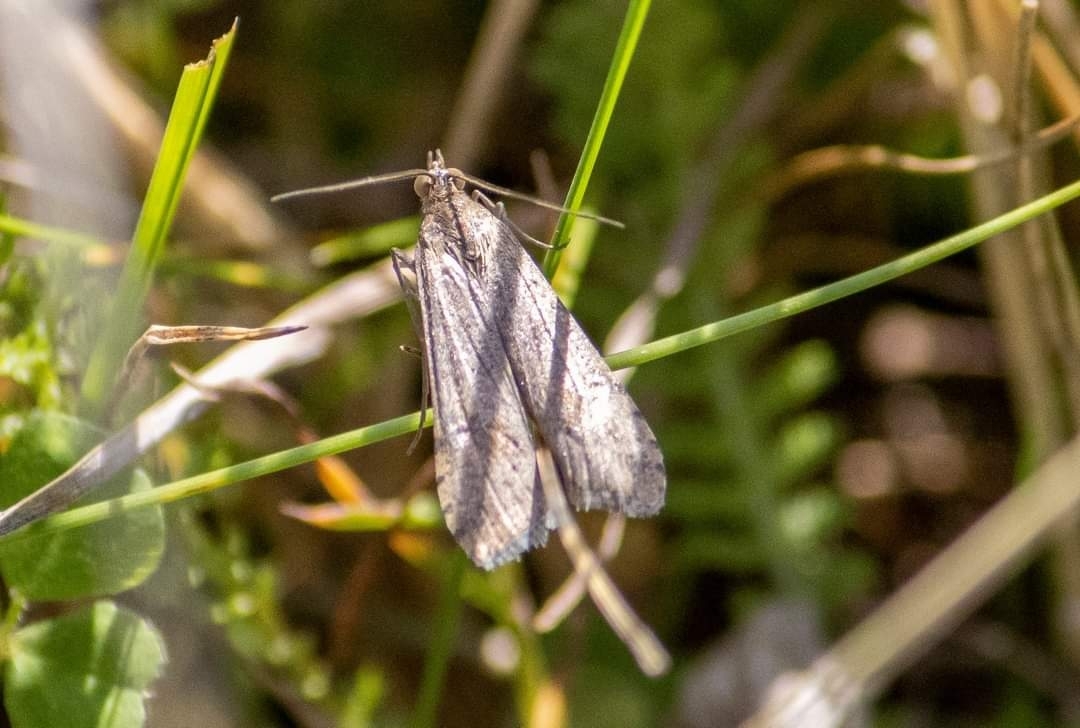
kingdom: Animalia
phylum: Arthropoda
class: Insecta
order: Lepidoptera
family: Crambidae
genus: Nomophila
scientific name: Nomophila noctuella
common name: Rush veneer
